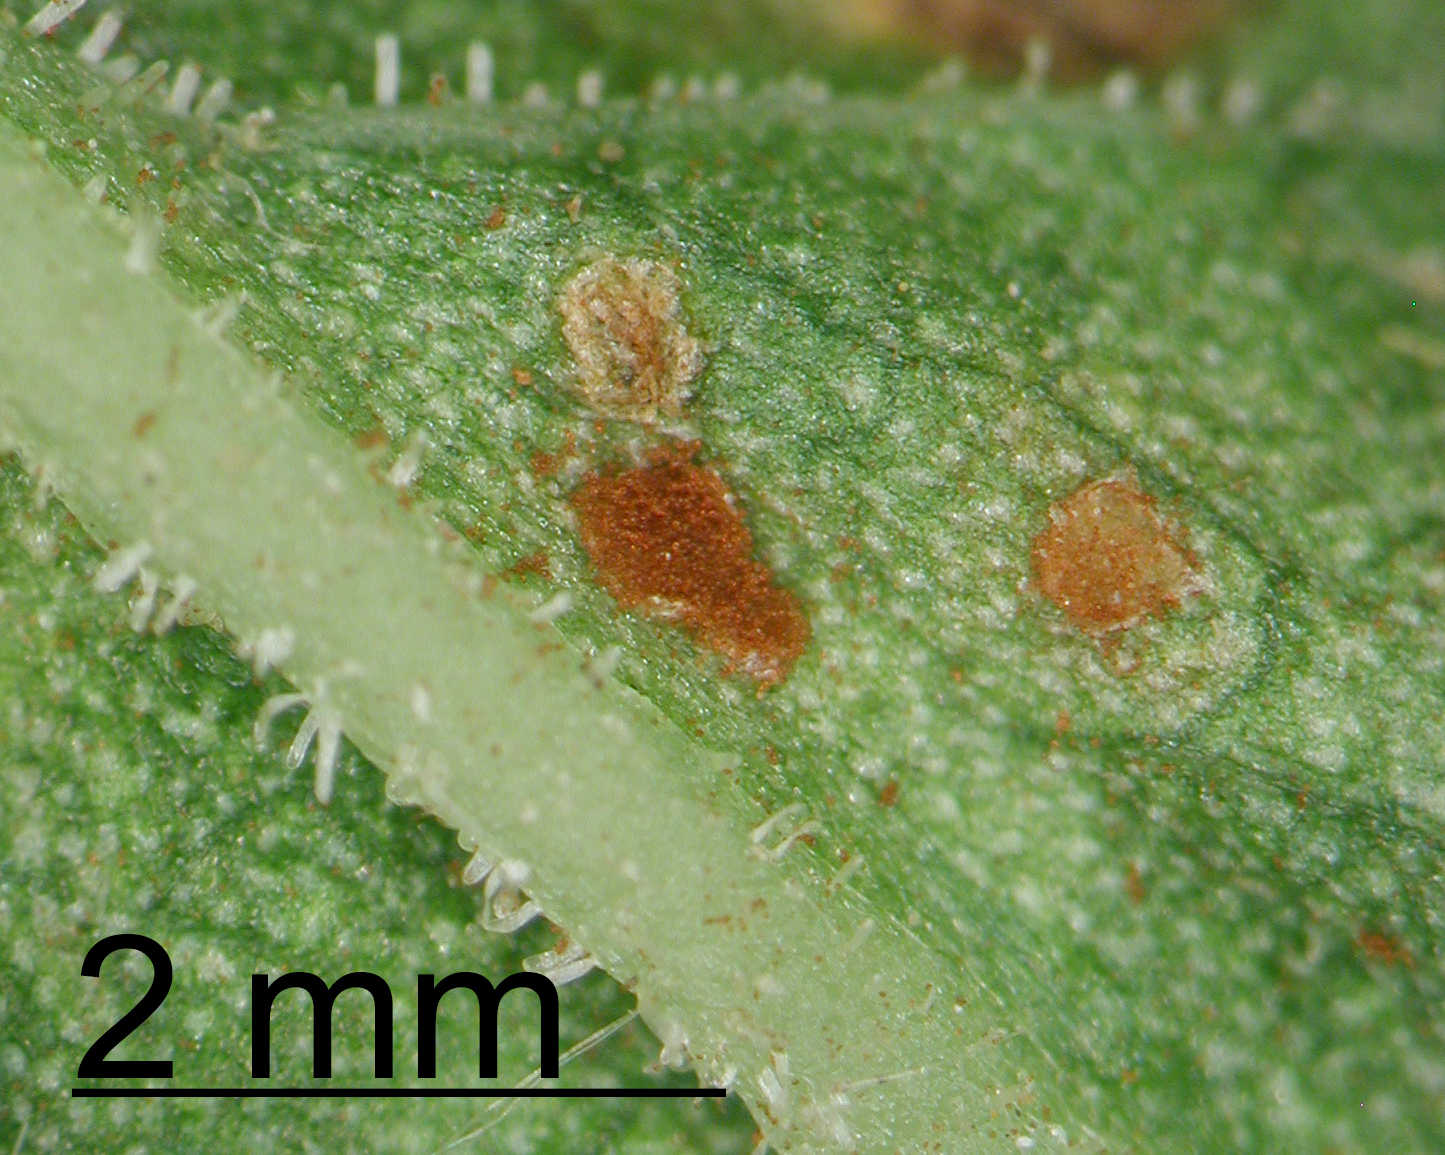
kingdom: Fungi
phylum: Basidiomycota
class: Pucciniomycetes
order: Pucciniales
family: Pucciniaceae
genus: Uromyces
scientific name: Uromyces rumicis
